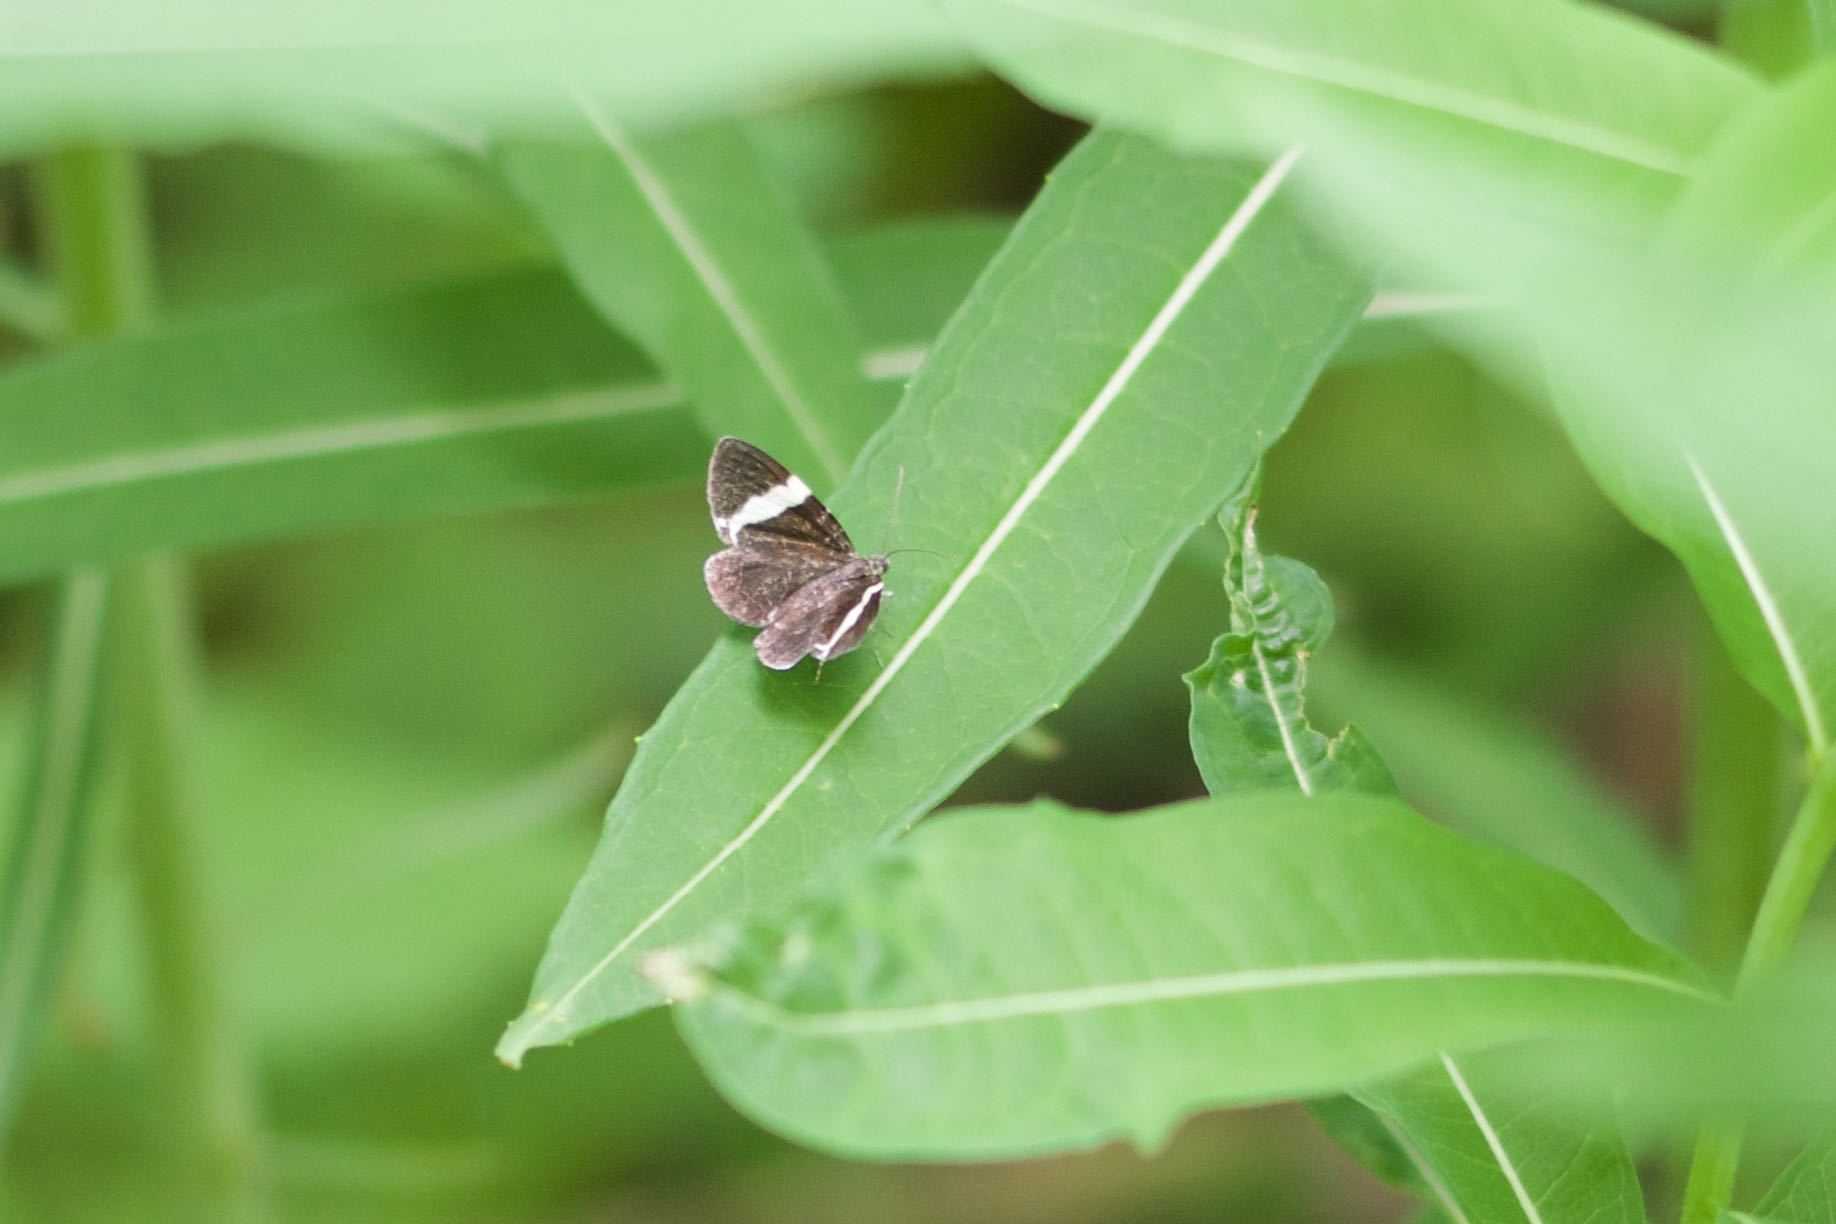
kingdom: Animalia
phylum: Arthropoda
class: Insecta
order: Lepidoptera
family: Geometridae
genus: Trichodezia
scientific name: Trichodezia albovittata
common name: White striped black
